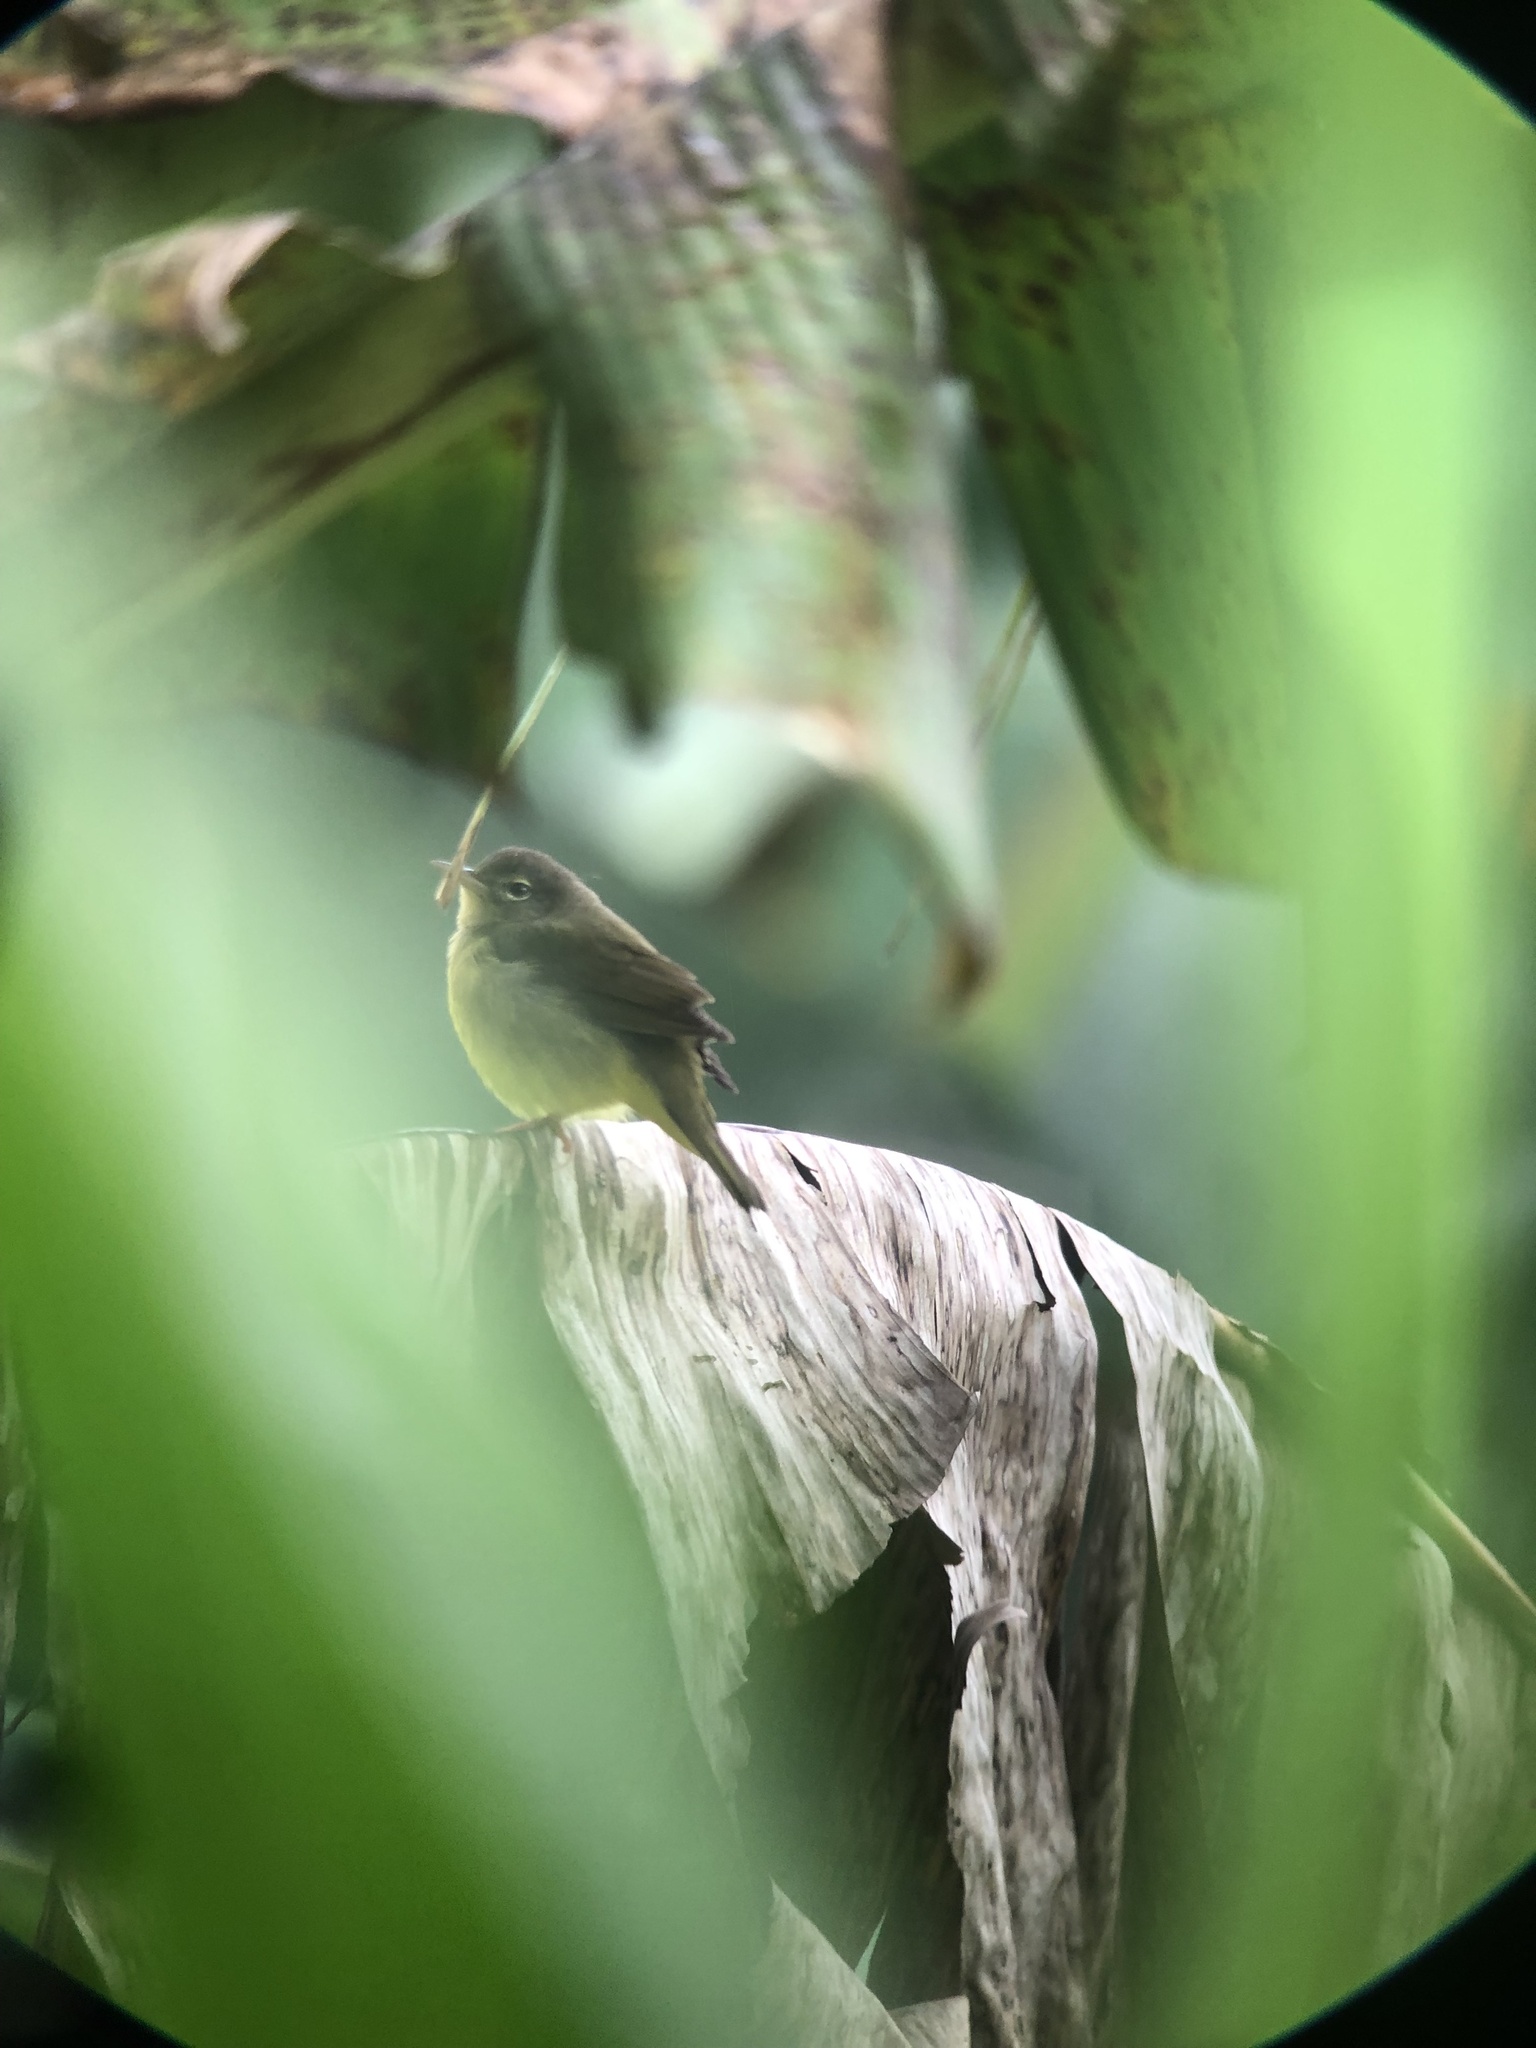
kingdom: Animalia
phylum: Chordata
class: Aves
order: Passeriformes
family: Parulidae
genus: Geothlypis
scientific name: Geothlypis philadelphia
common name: Mourning warbler
